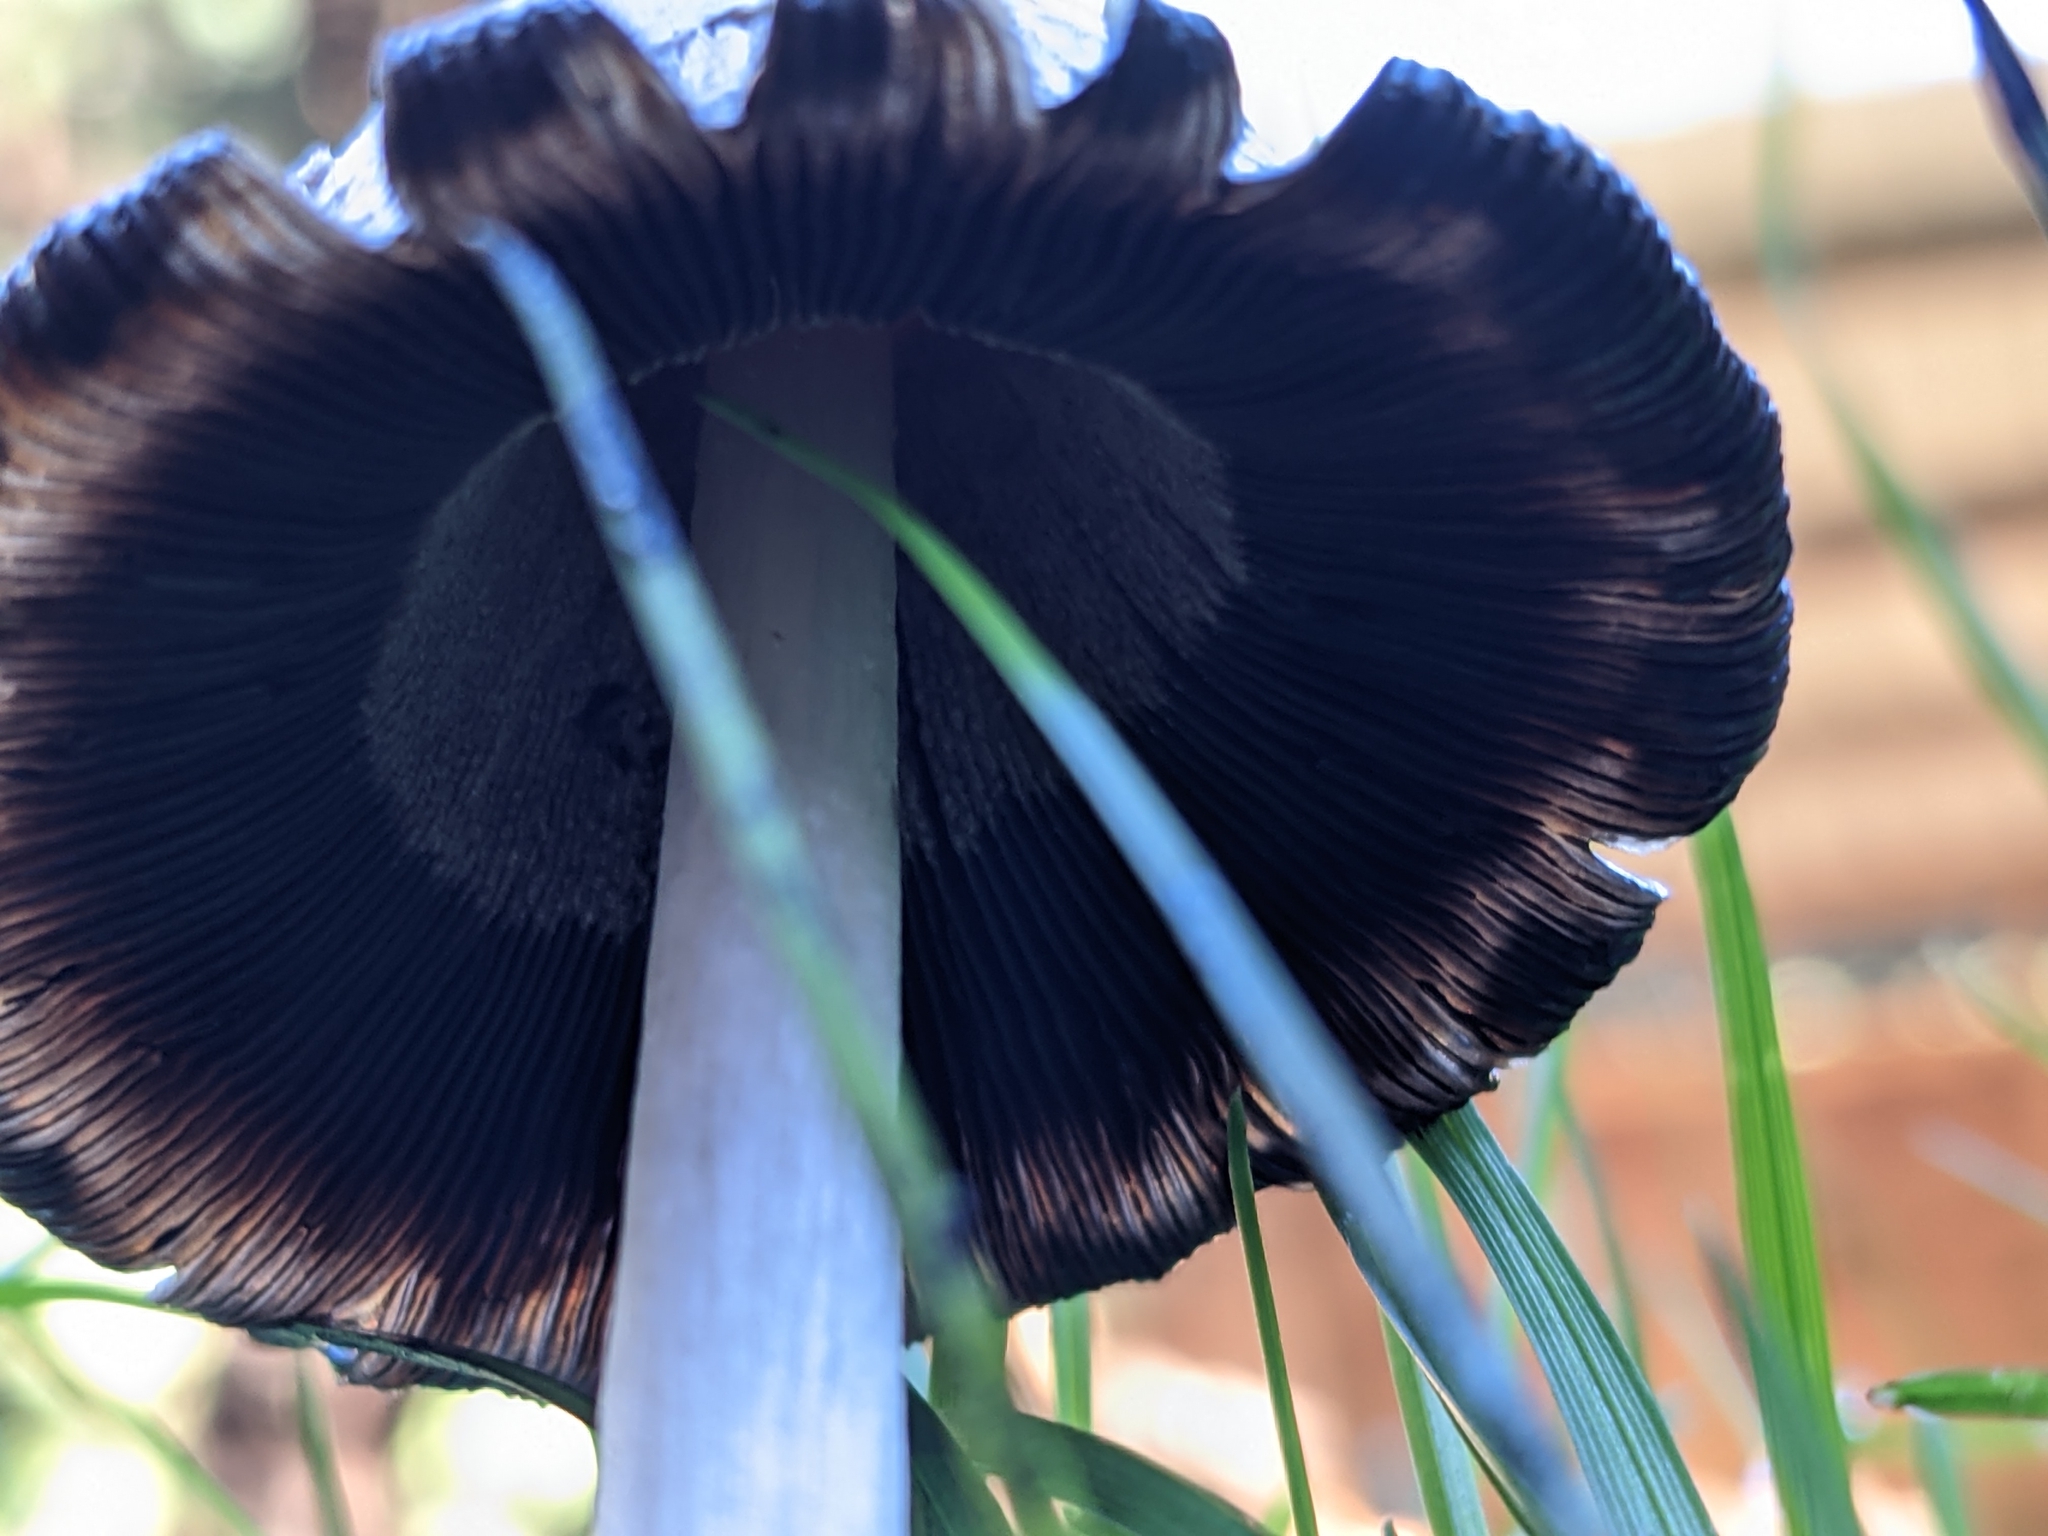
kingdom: Fungi
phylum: Basidiomycota
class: Agaricomycetes
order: Agaricales
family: Agaricaceae
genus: Coprinus
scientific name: Coprinus comatus
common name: Lawyer's wig
